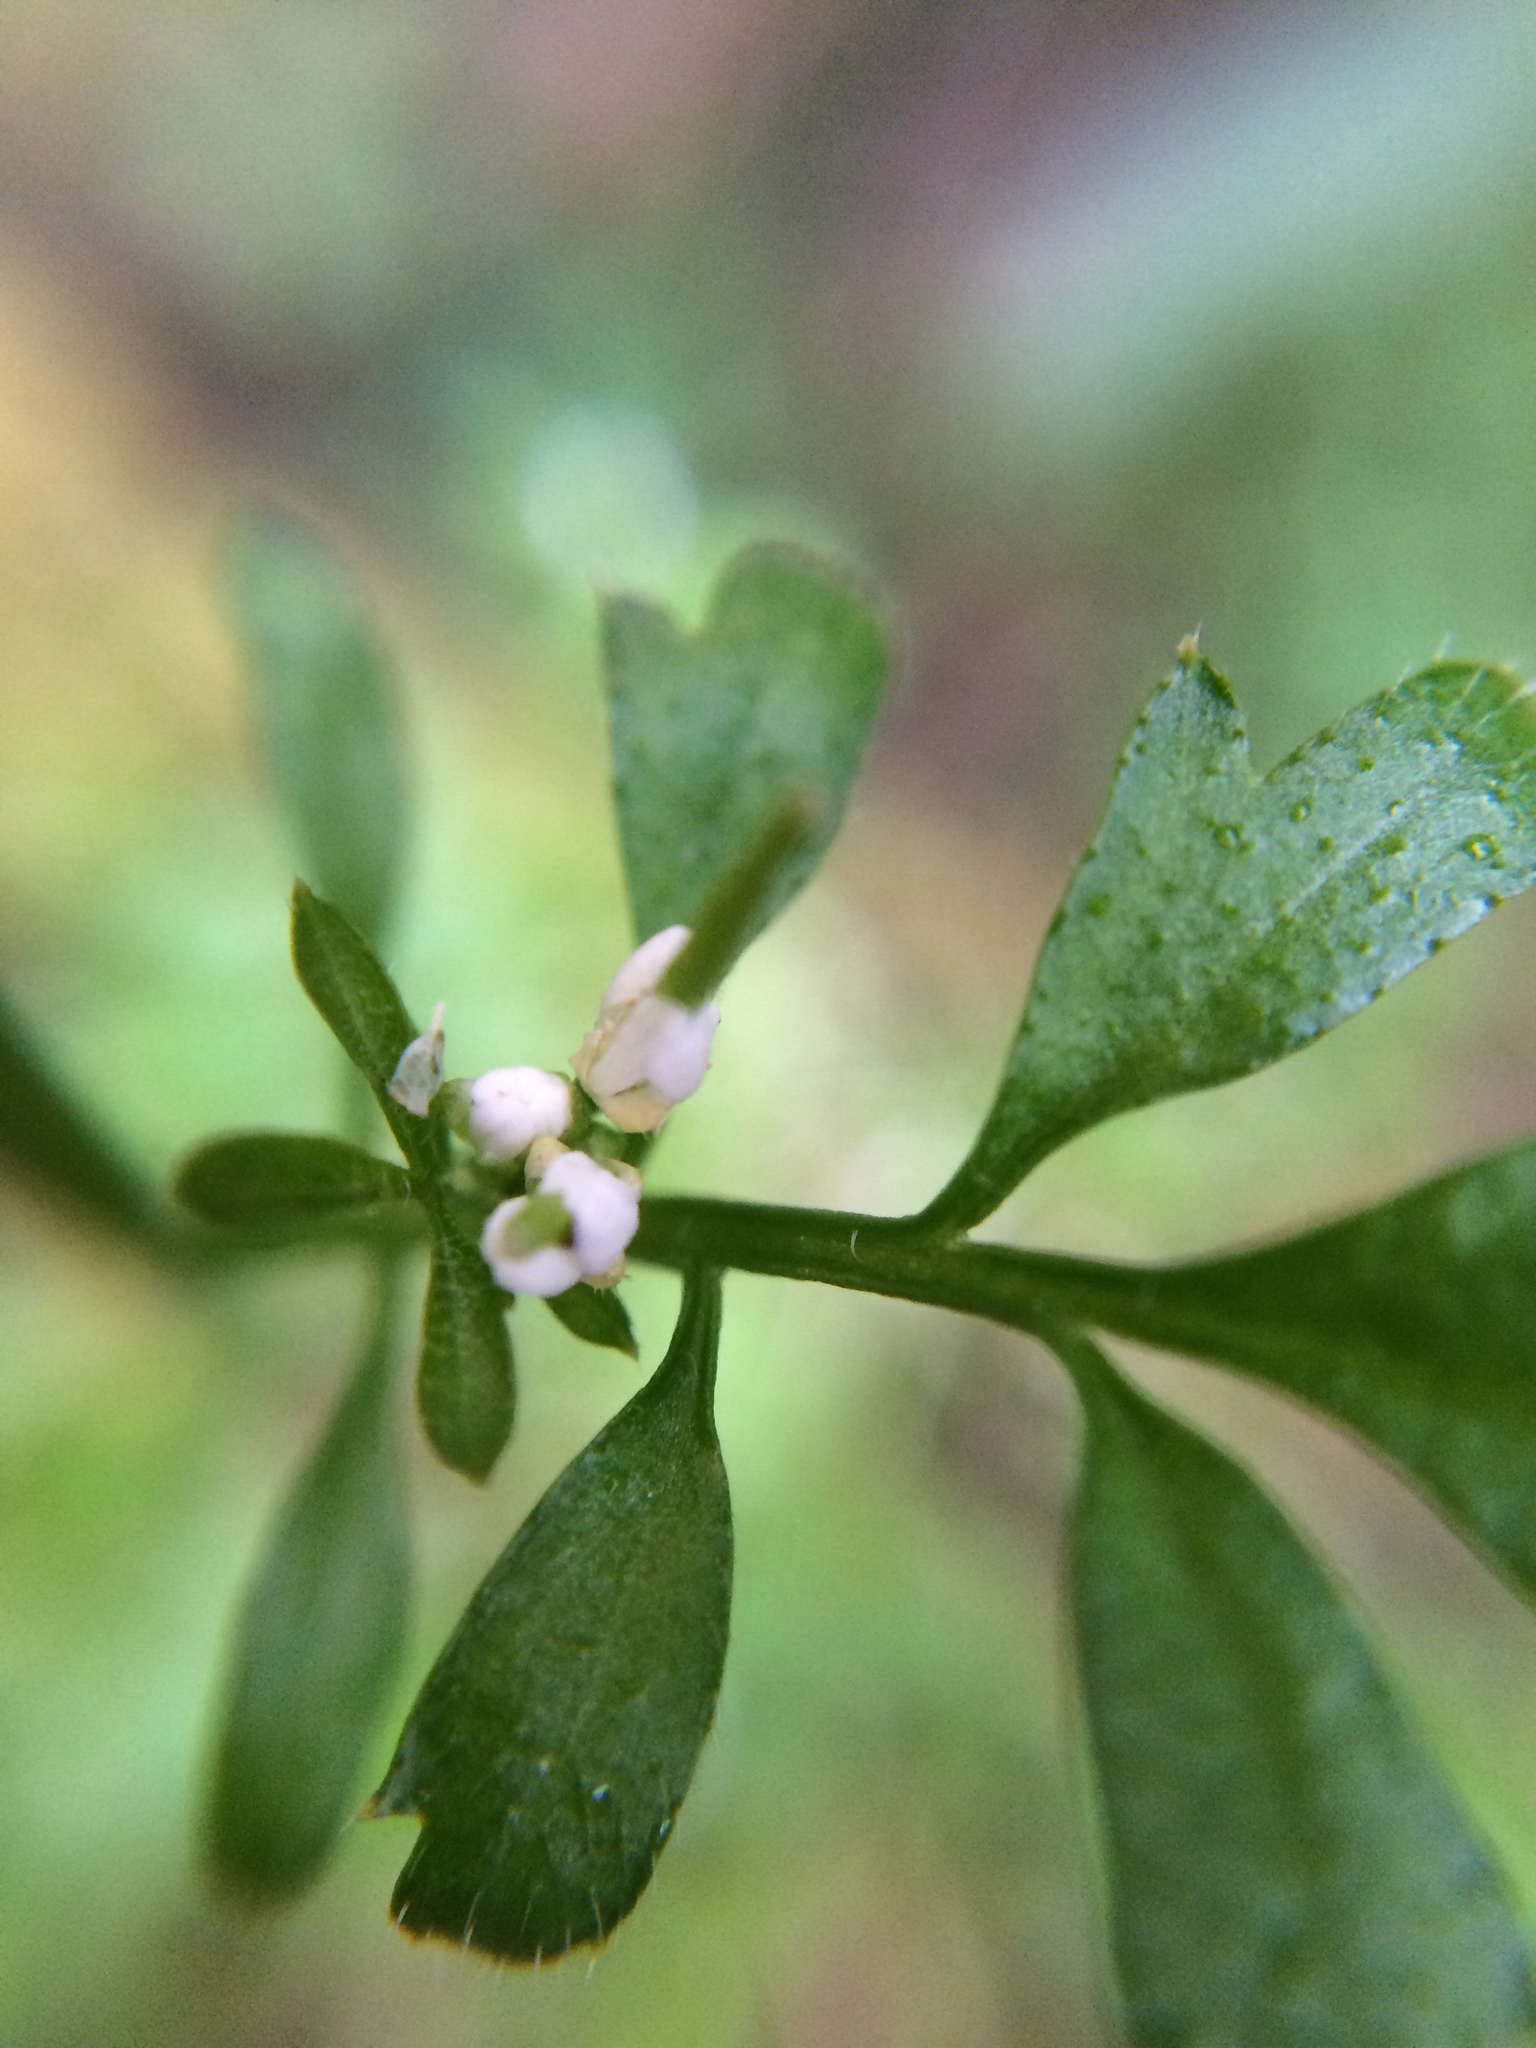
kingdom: Plantae
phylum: Tracheophyta
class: Magnoliopsida
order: Brassicales
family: Brassicaceae
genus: Cardamine
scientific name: Cardamine oligosperma
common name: Idaho bittercress
